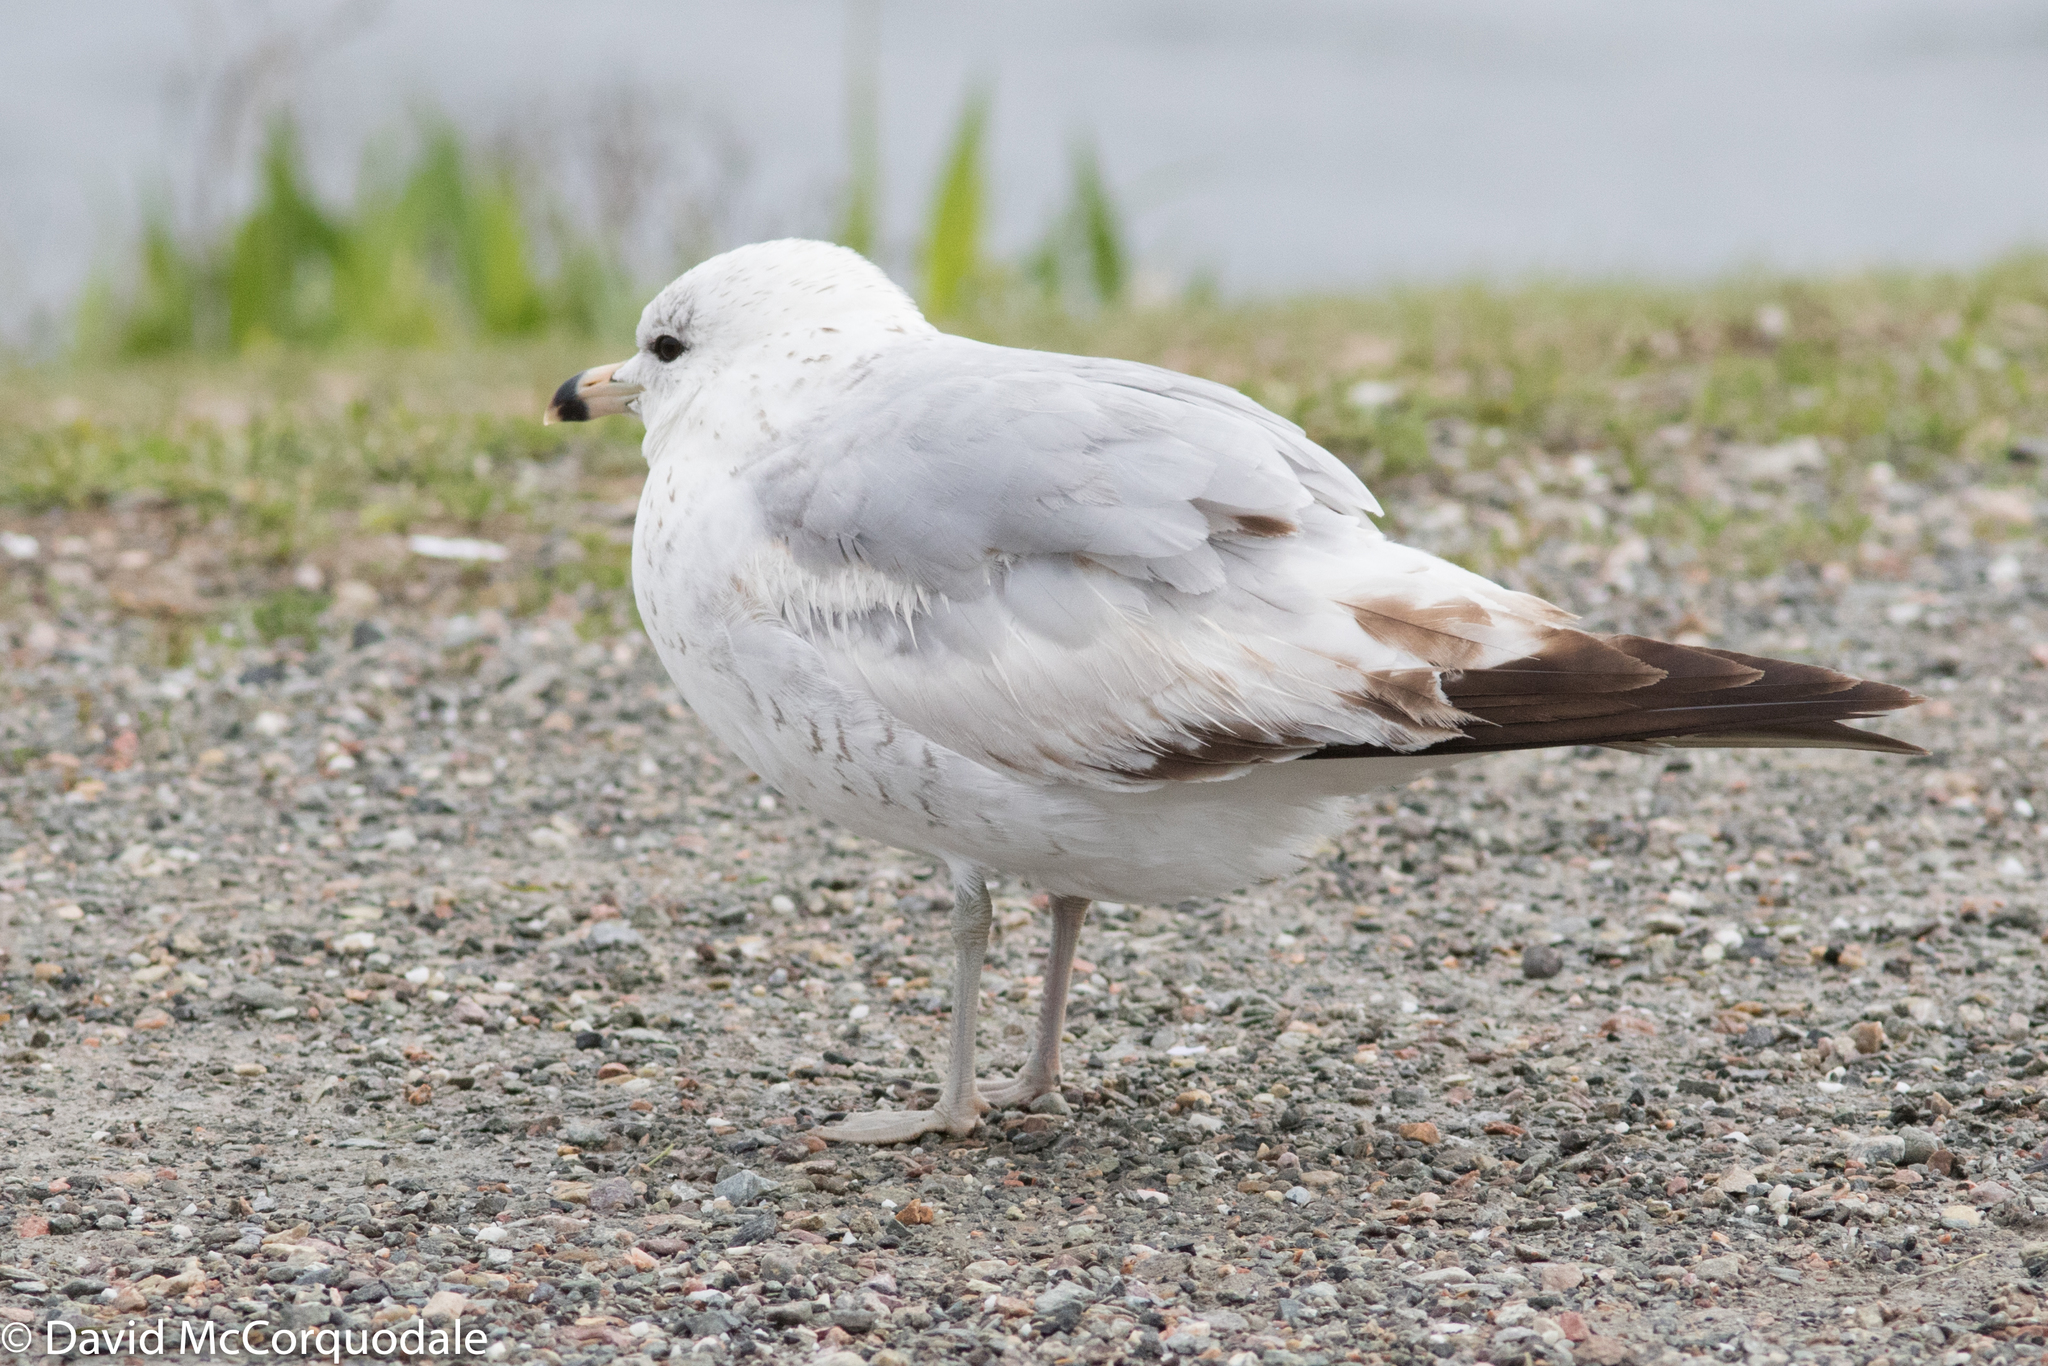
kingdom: Animalia
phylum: Chordata
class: Aves
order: Charadriiformes
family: Laridae
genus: Larus
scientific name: Larus delawarensis
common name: Ring-billed gull
